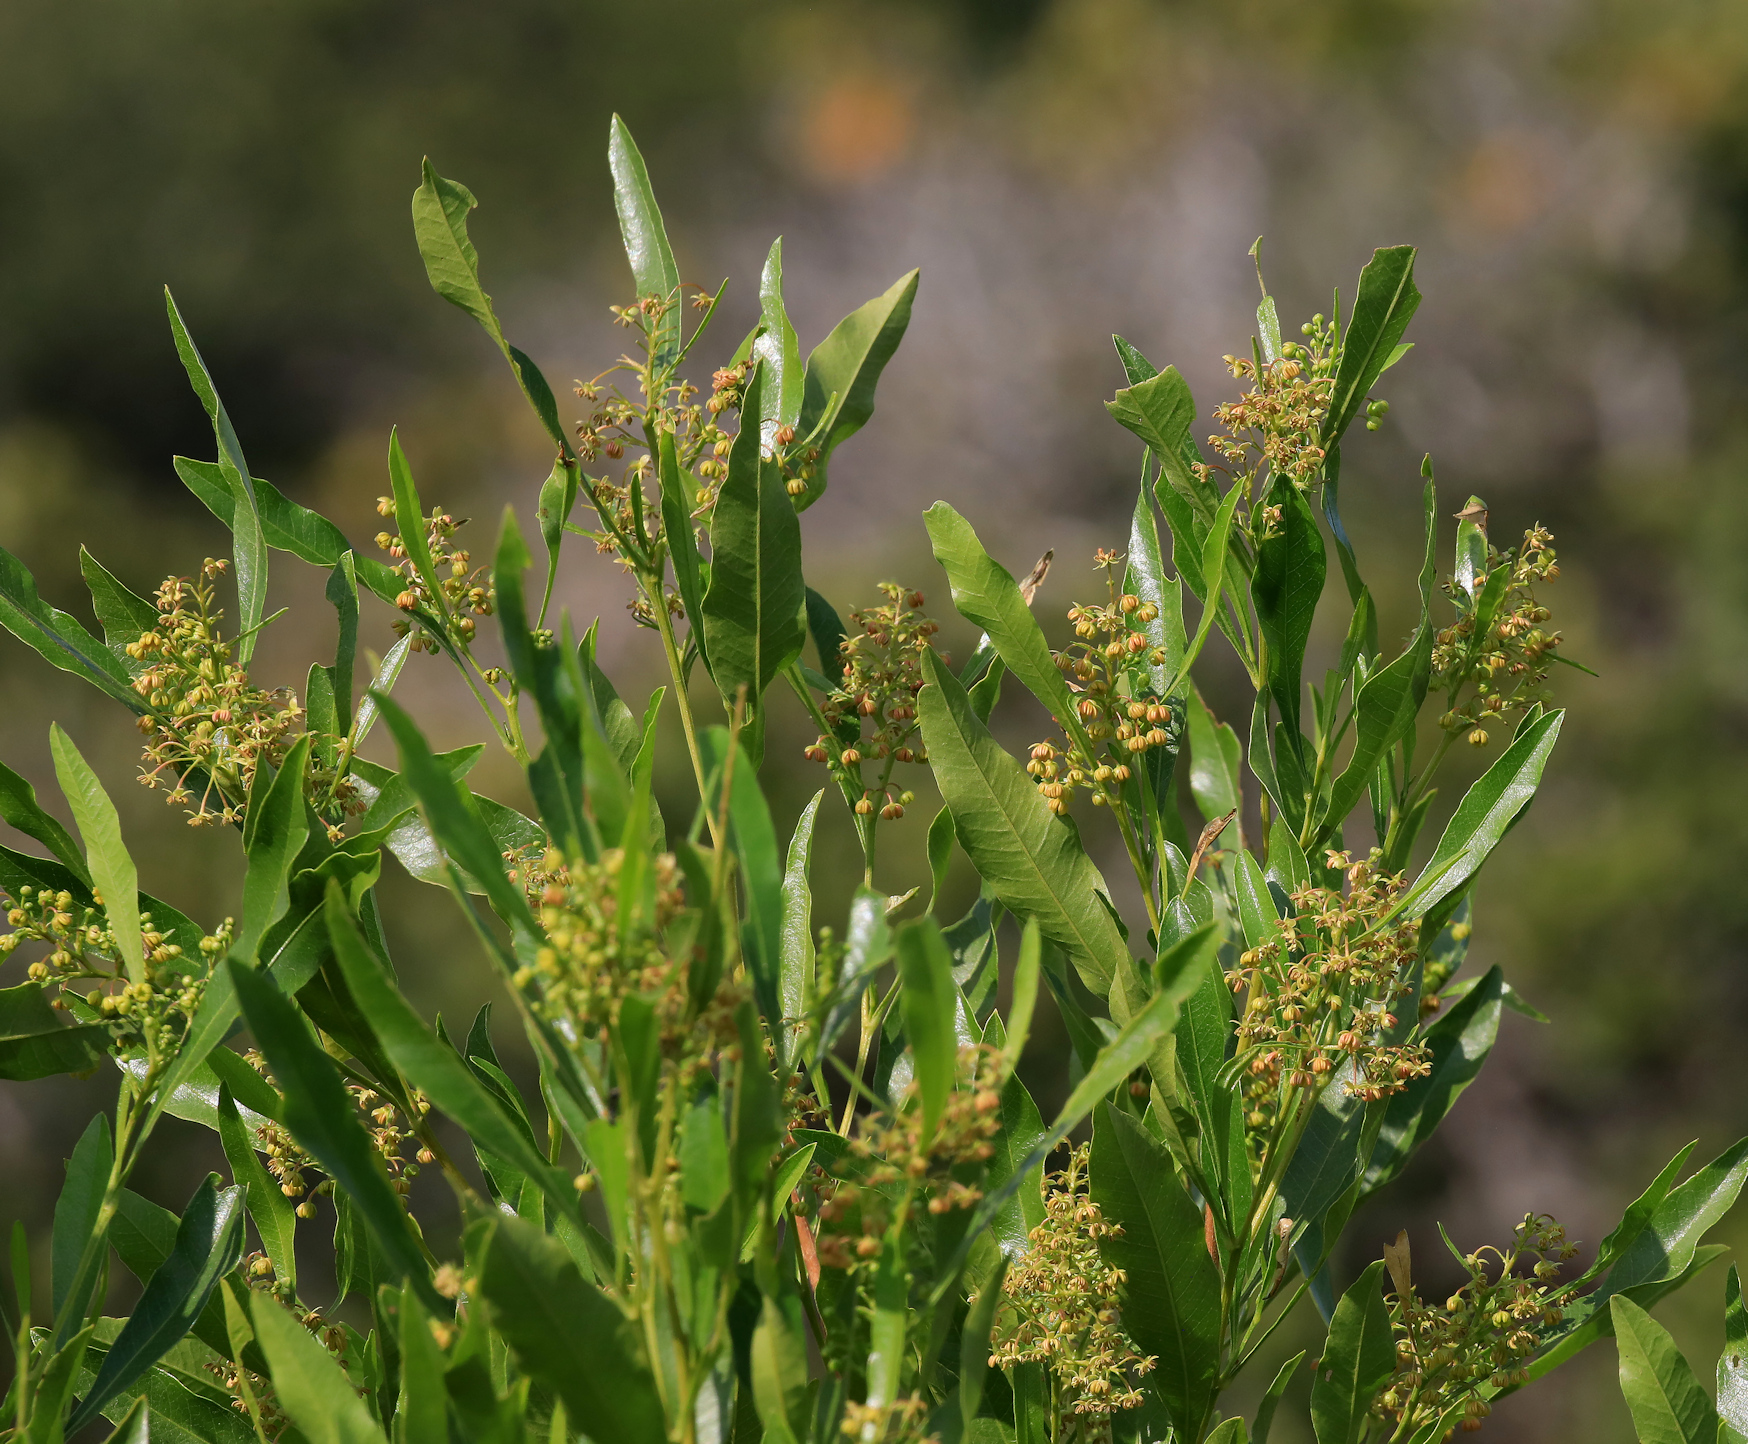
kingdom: Plantae
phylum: Tracheophyta
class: Magnoliopsida
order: Sapindales
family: Sapindaceae
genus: Dodonaea
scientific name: Dodonaea viscosa
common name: Hopbush
